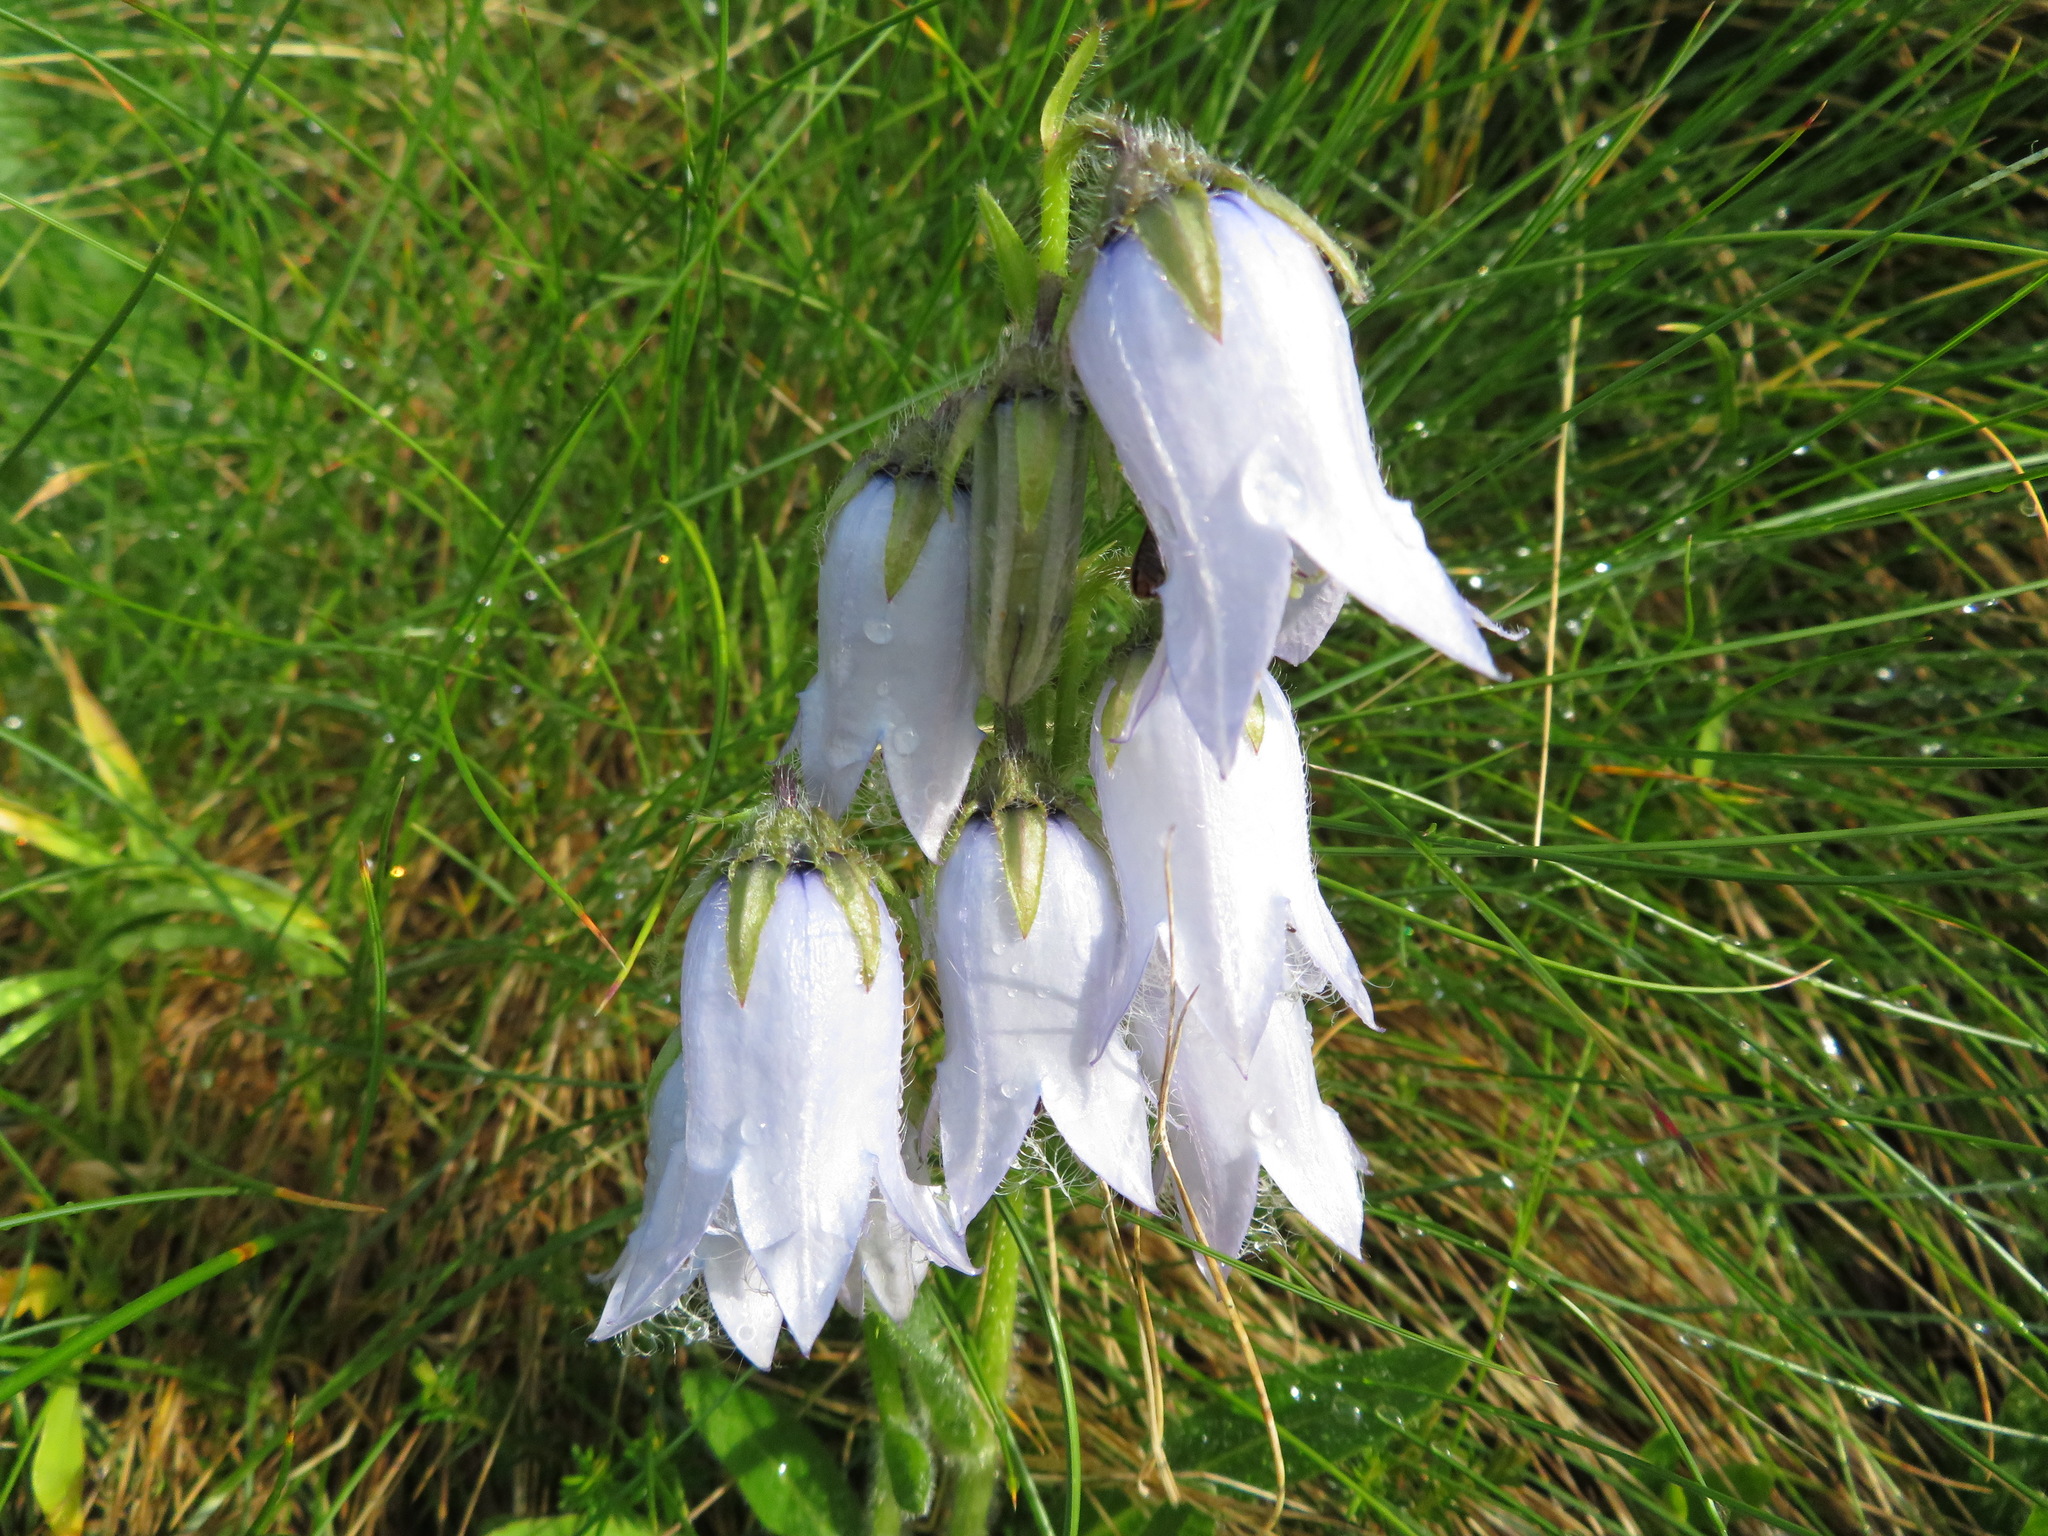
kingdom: Plantae
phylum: Tracheophyta
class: Magnoliopsida
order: Asterales
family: Campanulaceae
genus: Campanula
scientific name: Campanula barbata
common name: Bearded bellflower
